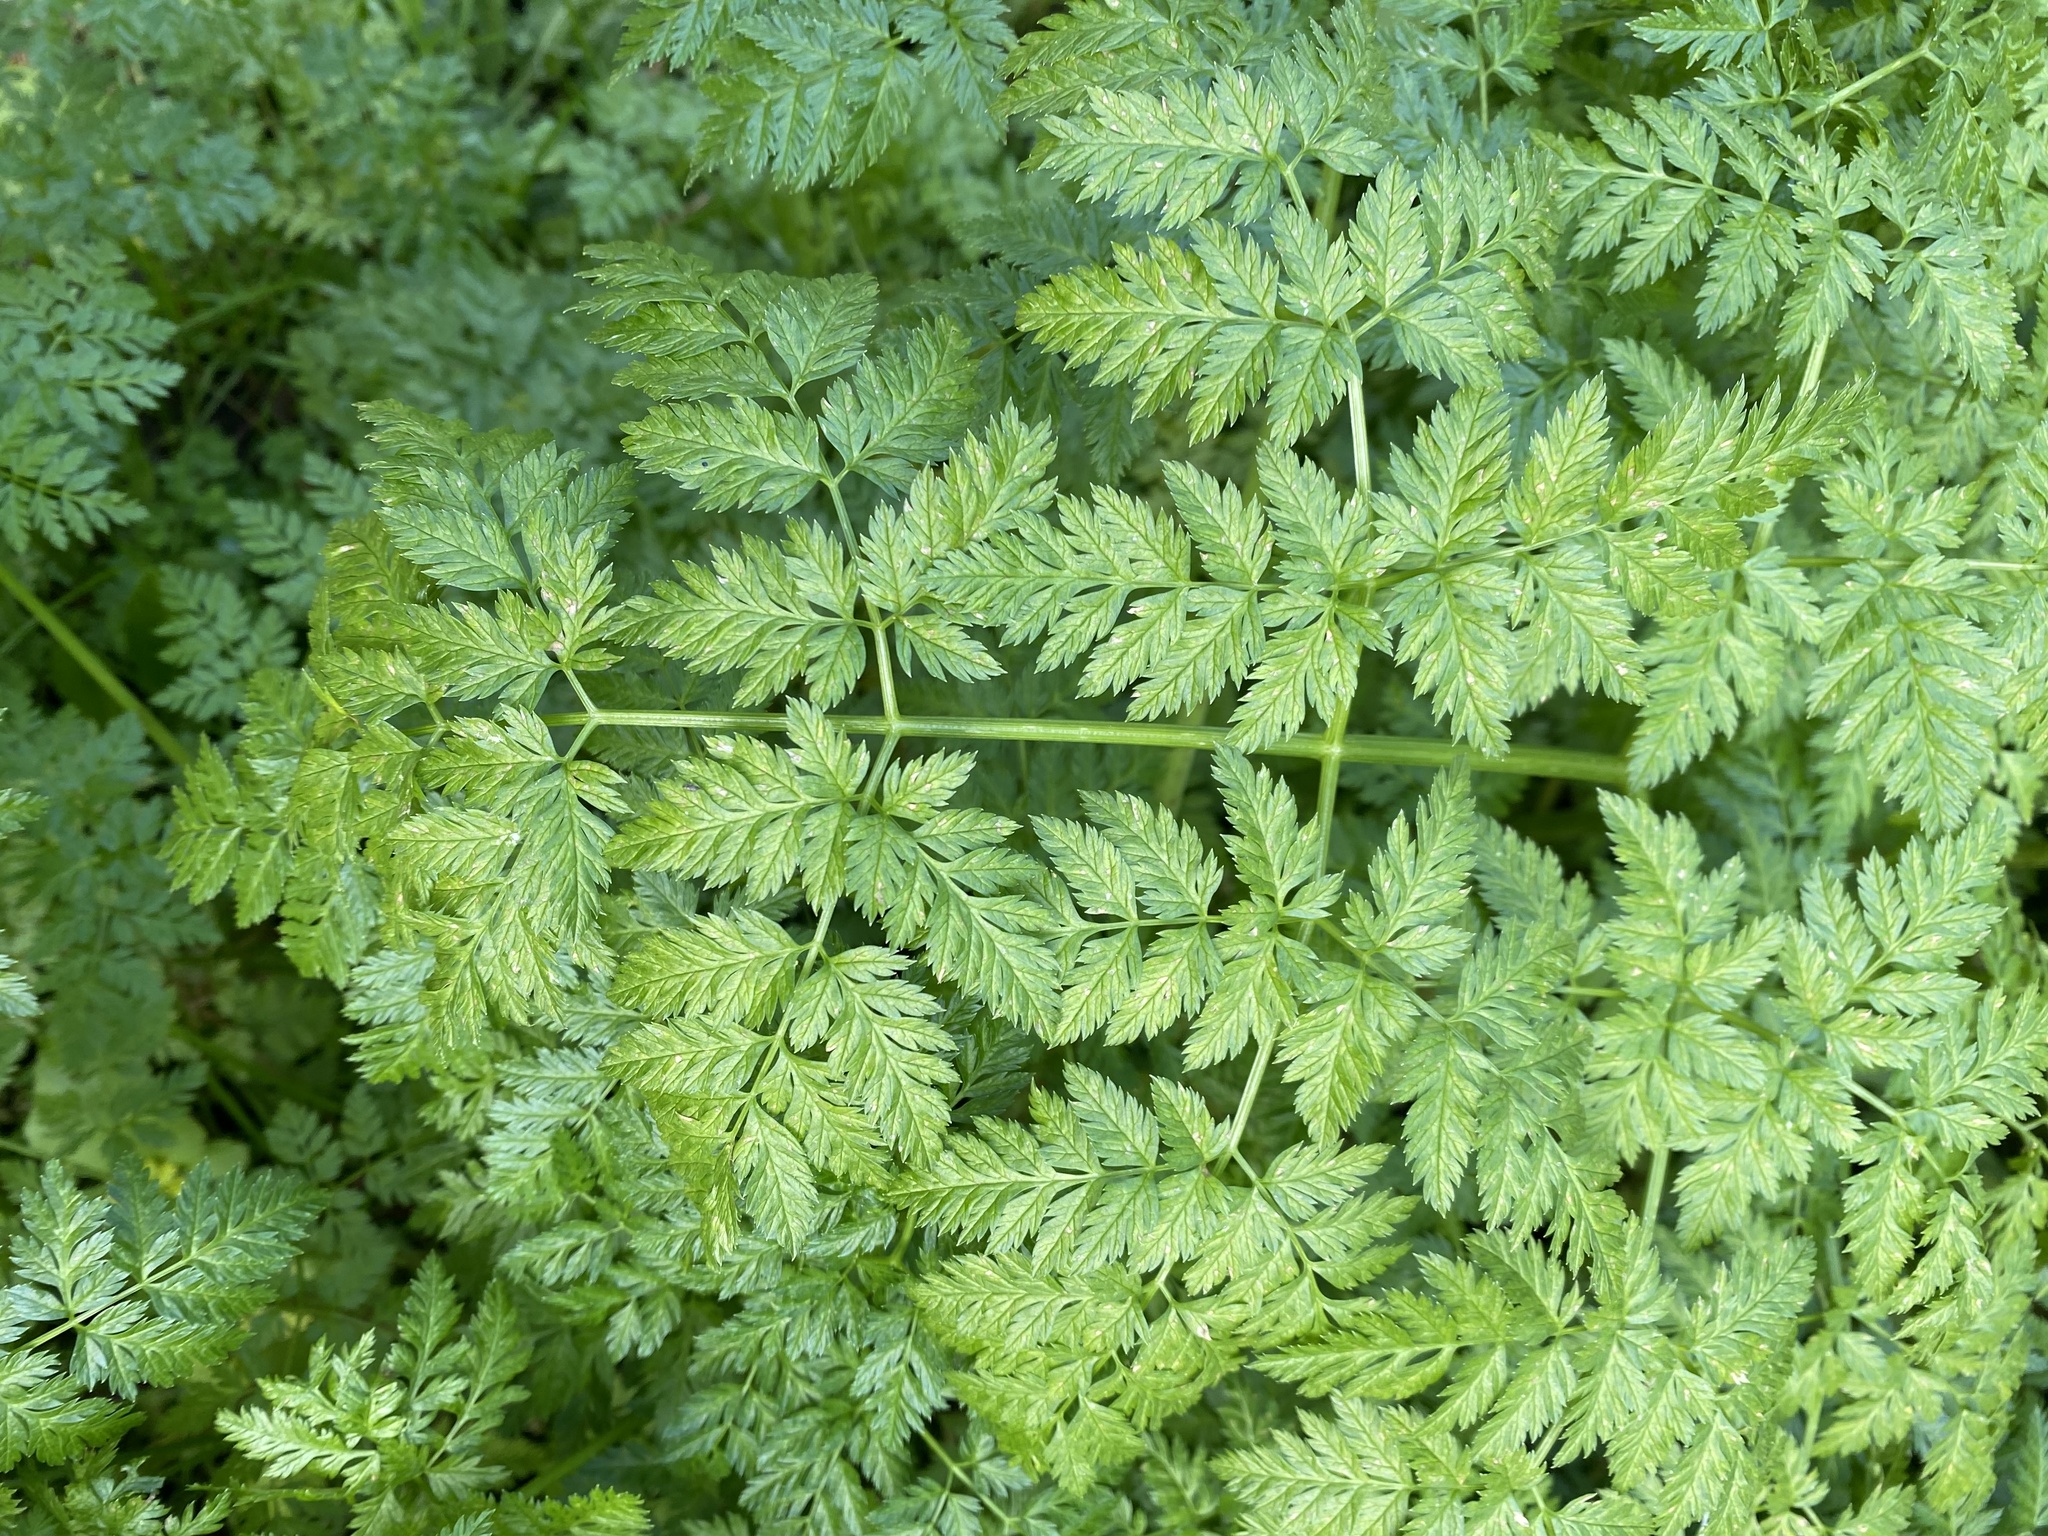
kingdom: Plantae
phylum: Tracheophyta
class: Magnoliopsida
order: Apiales
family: Apiaceae
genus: Conium
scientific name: Conium maculatum
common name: Hemlock
